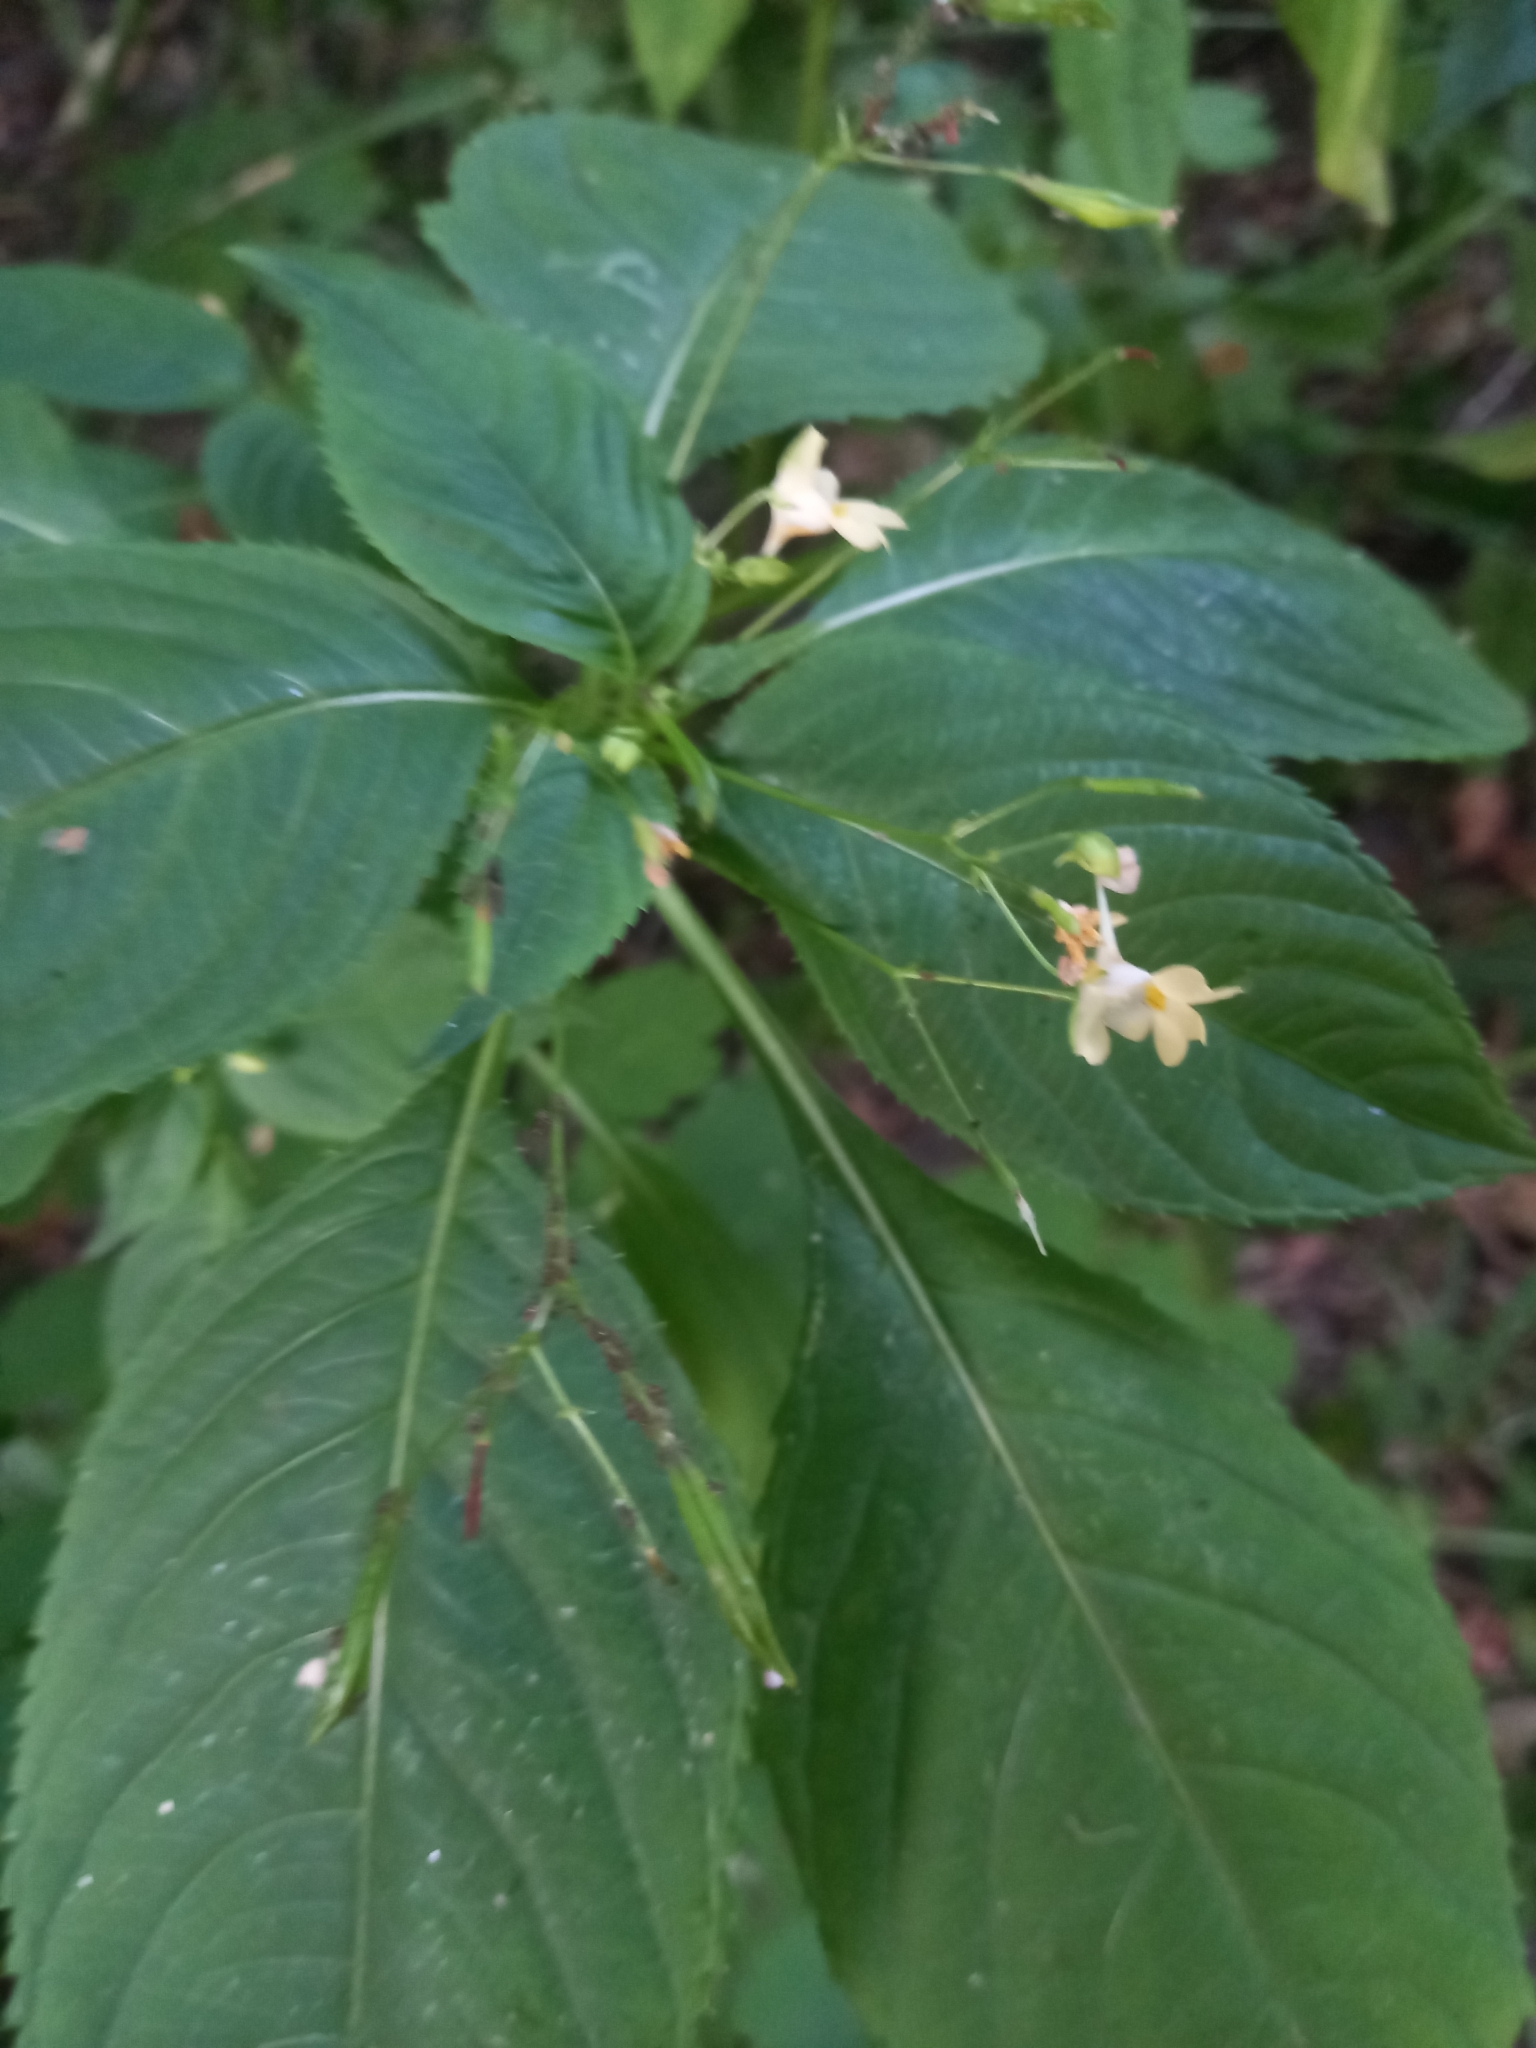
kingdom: Plantae
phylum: Tracheophyta
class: Magnoliopsida
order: Ericales
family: Balsaminaceae
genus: Impatiens
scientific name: Impatiens parviflora
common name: Small balsam
